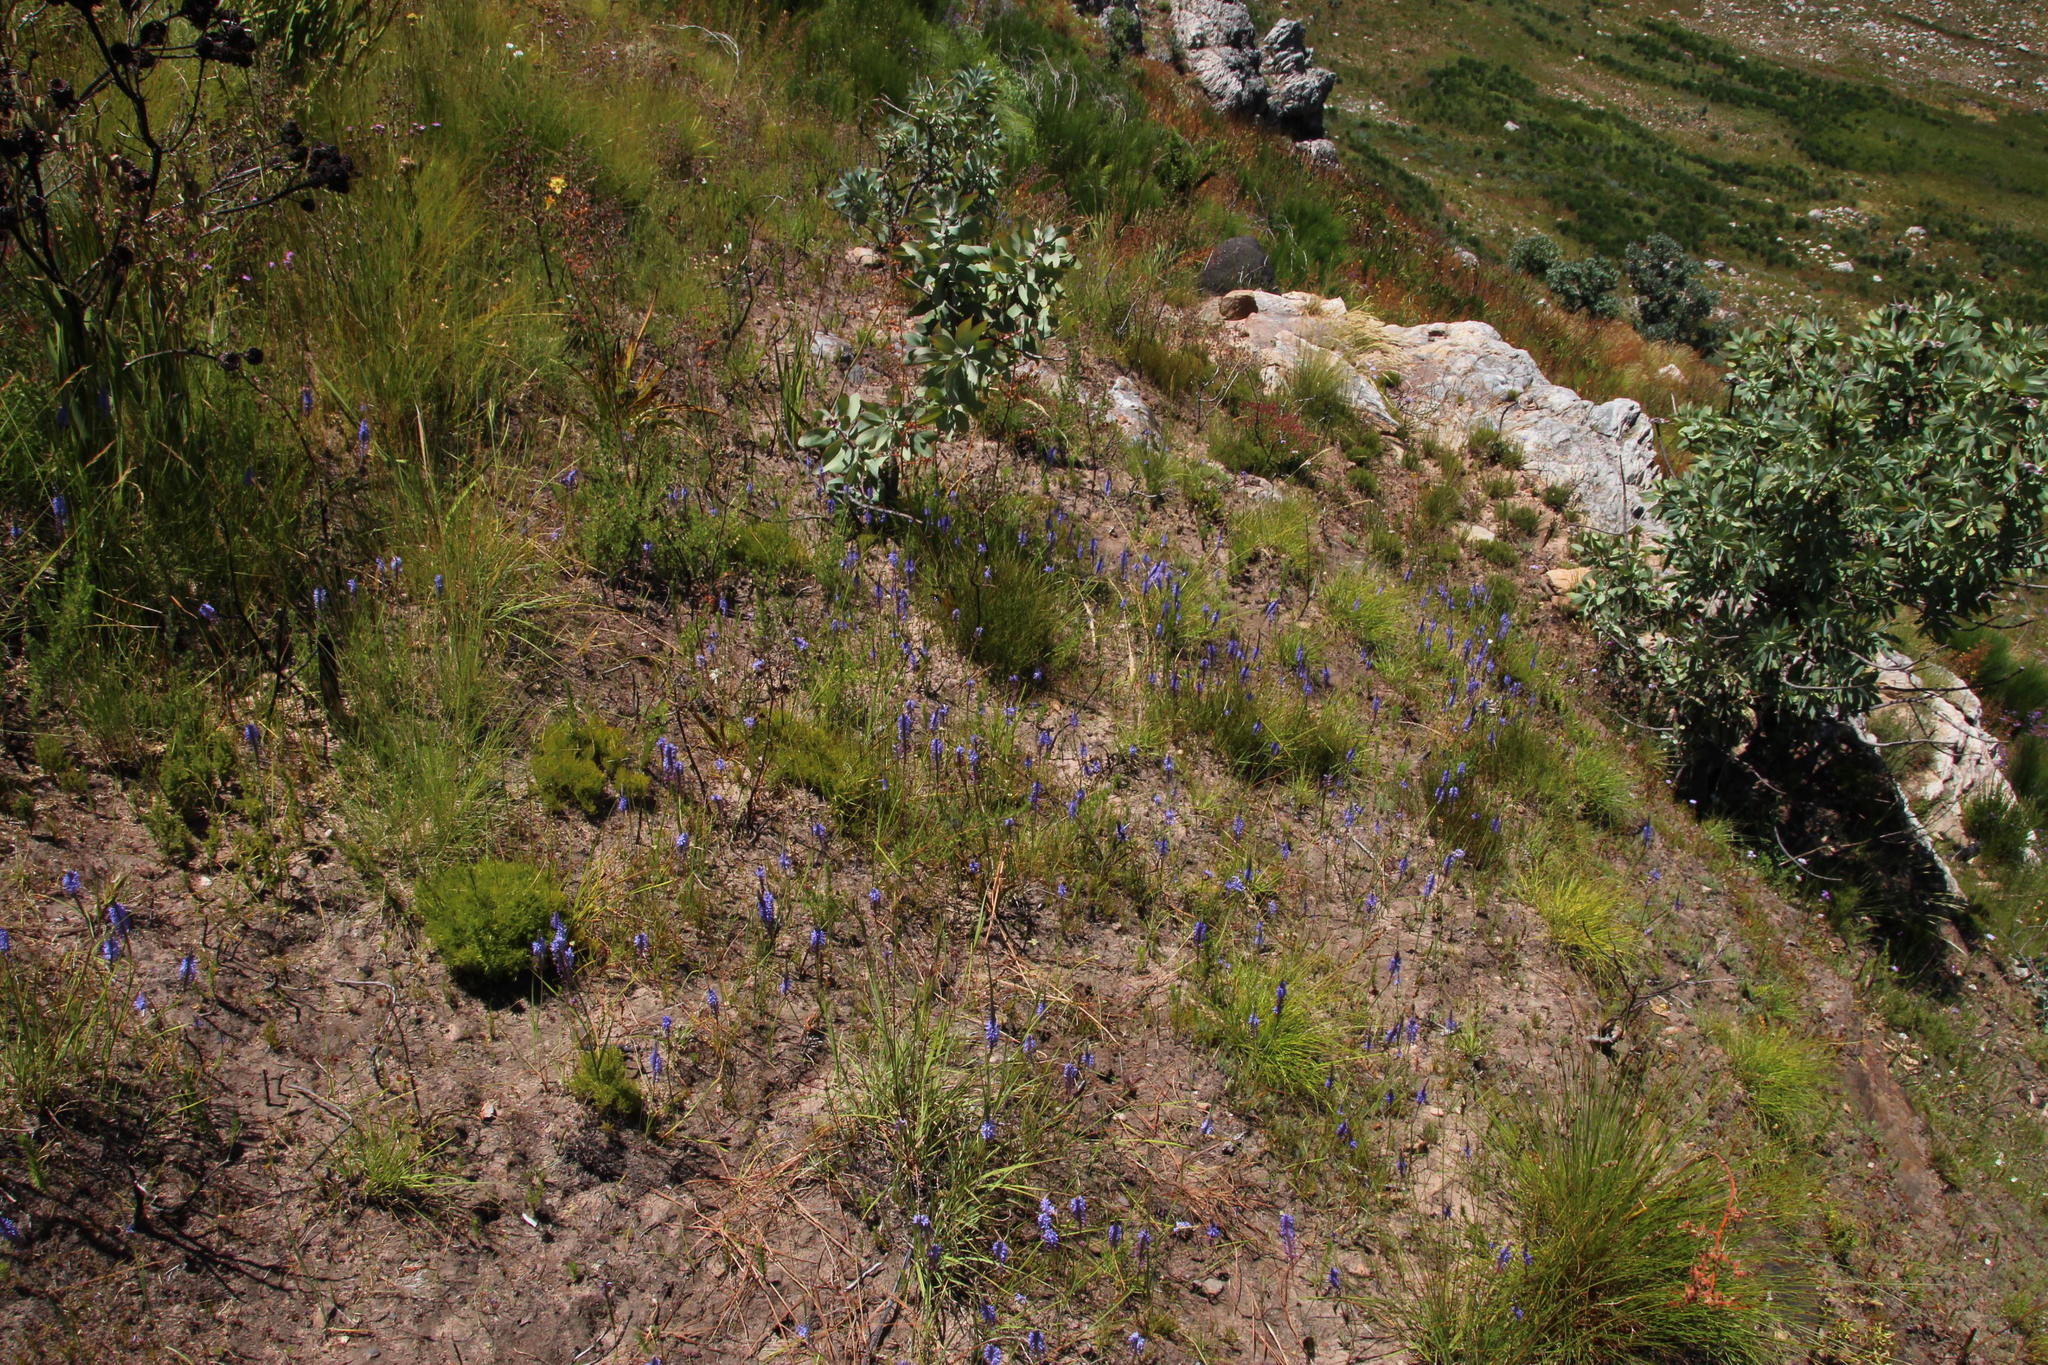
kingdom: Plantae
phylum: Tracheophyta
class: Liliopsida
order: Asparagales
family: Iridaceae
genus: Micranthus
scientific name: Micranthus alopecuroides
